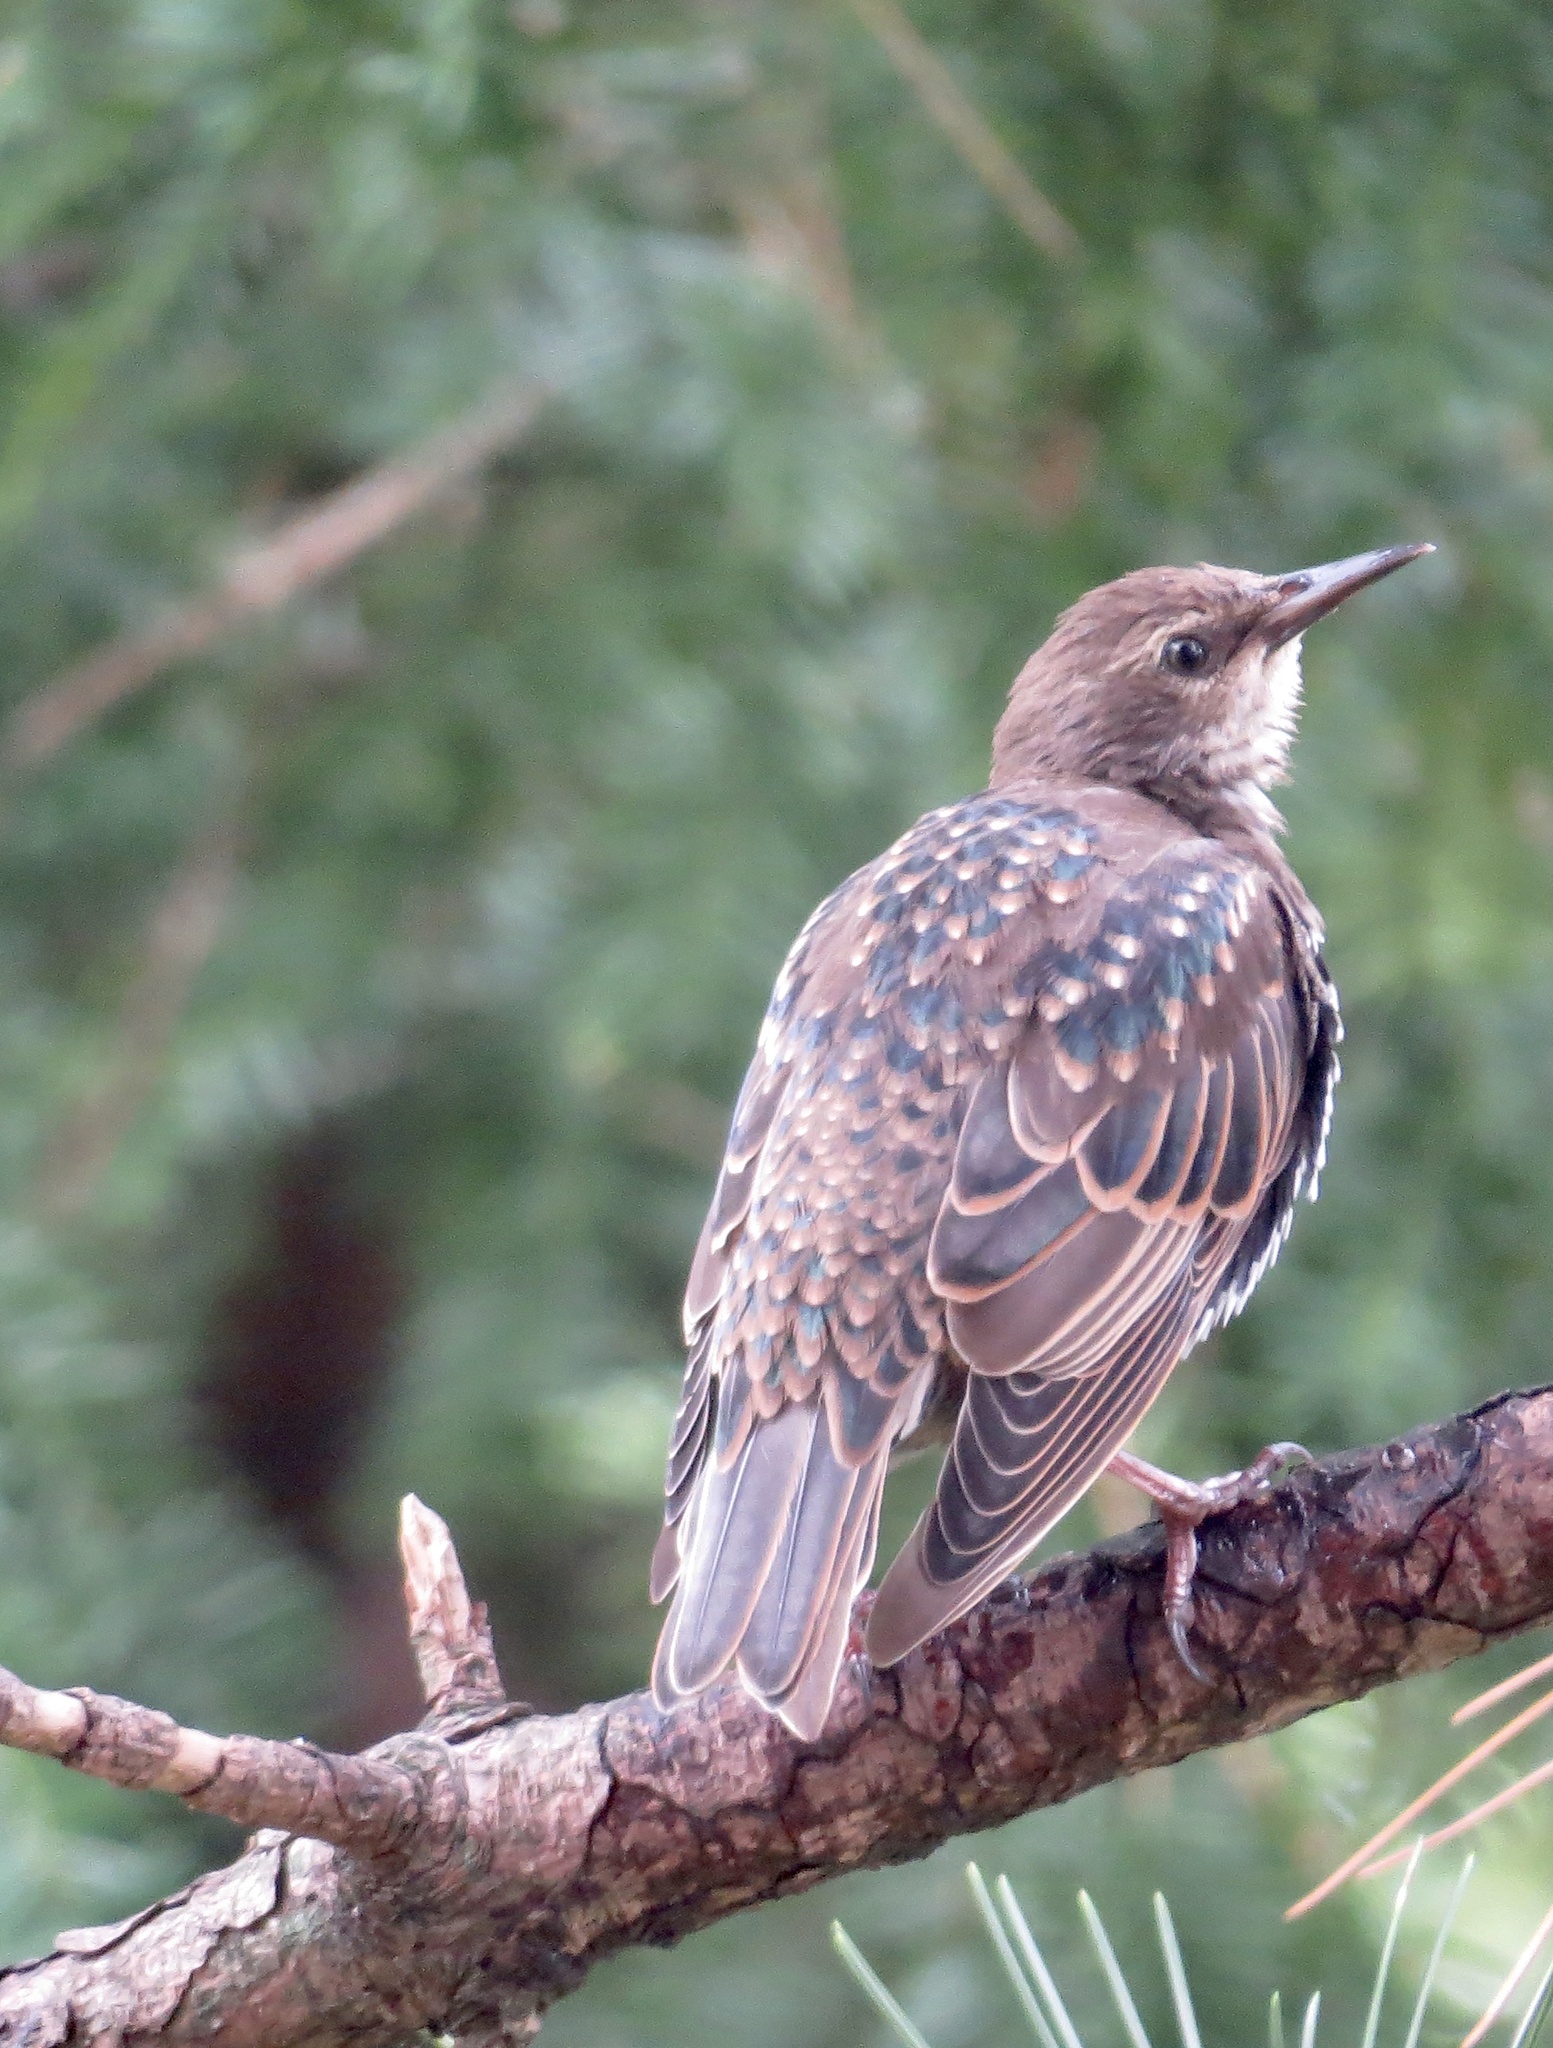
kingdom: Animalia
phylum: Chordata
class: Aves
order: Passeriformes
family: Sturnidae
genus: Sturnus
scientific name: Sturnus vulgaris
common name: Common starling
